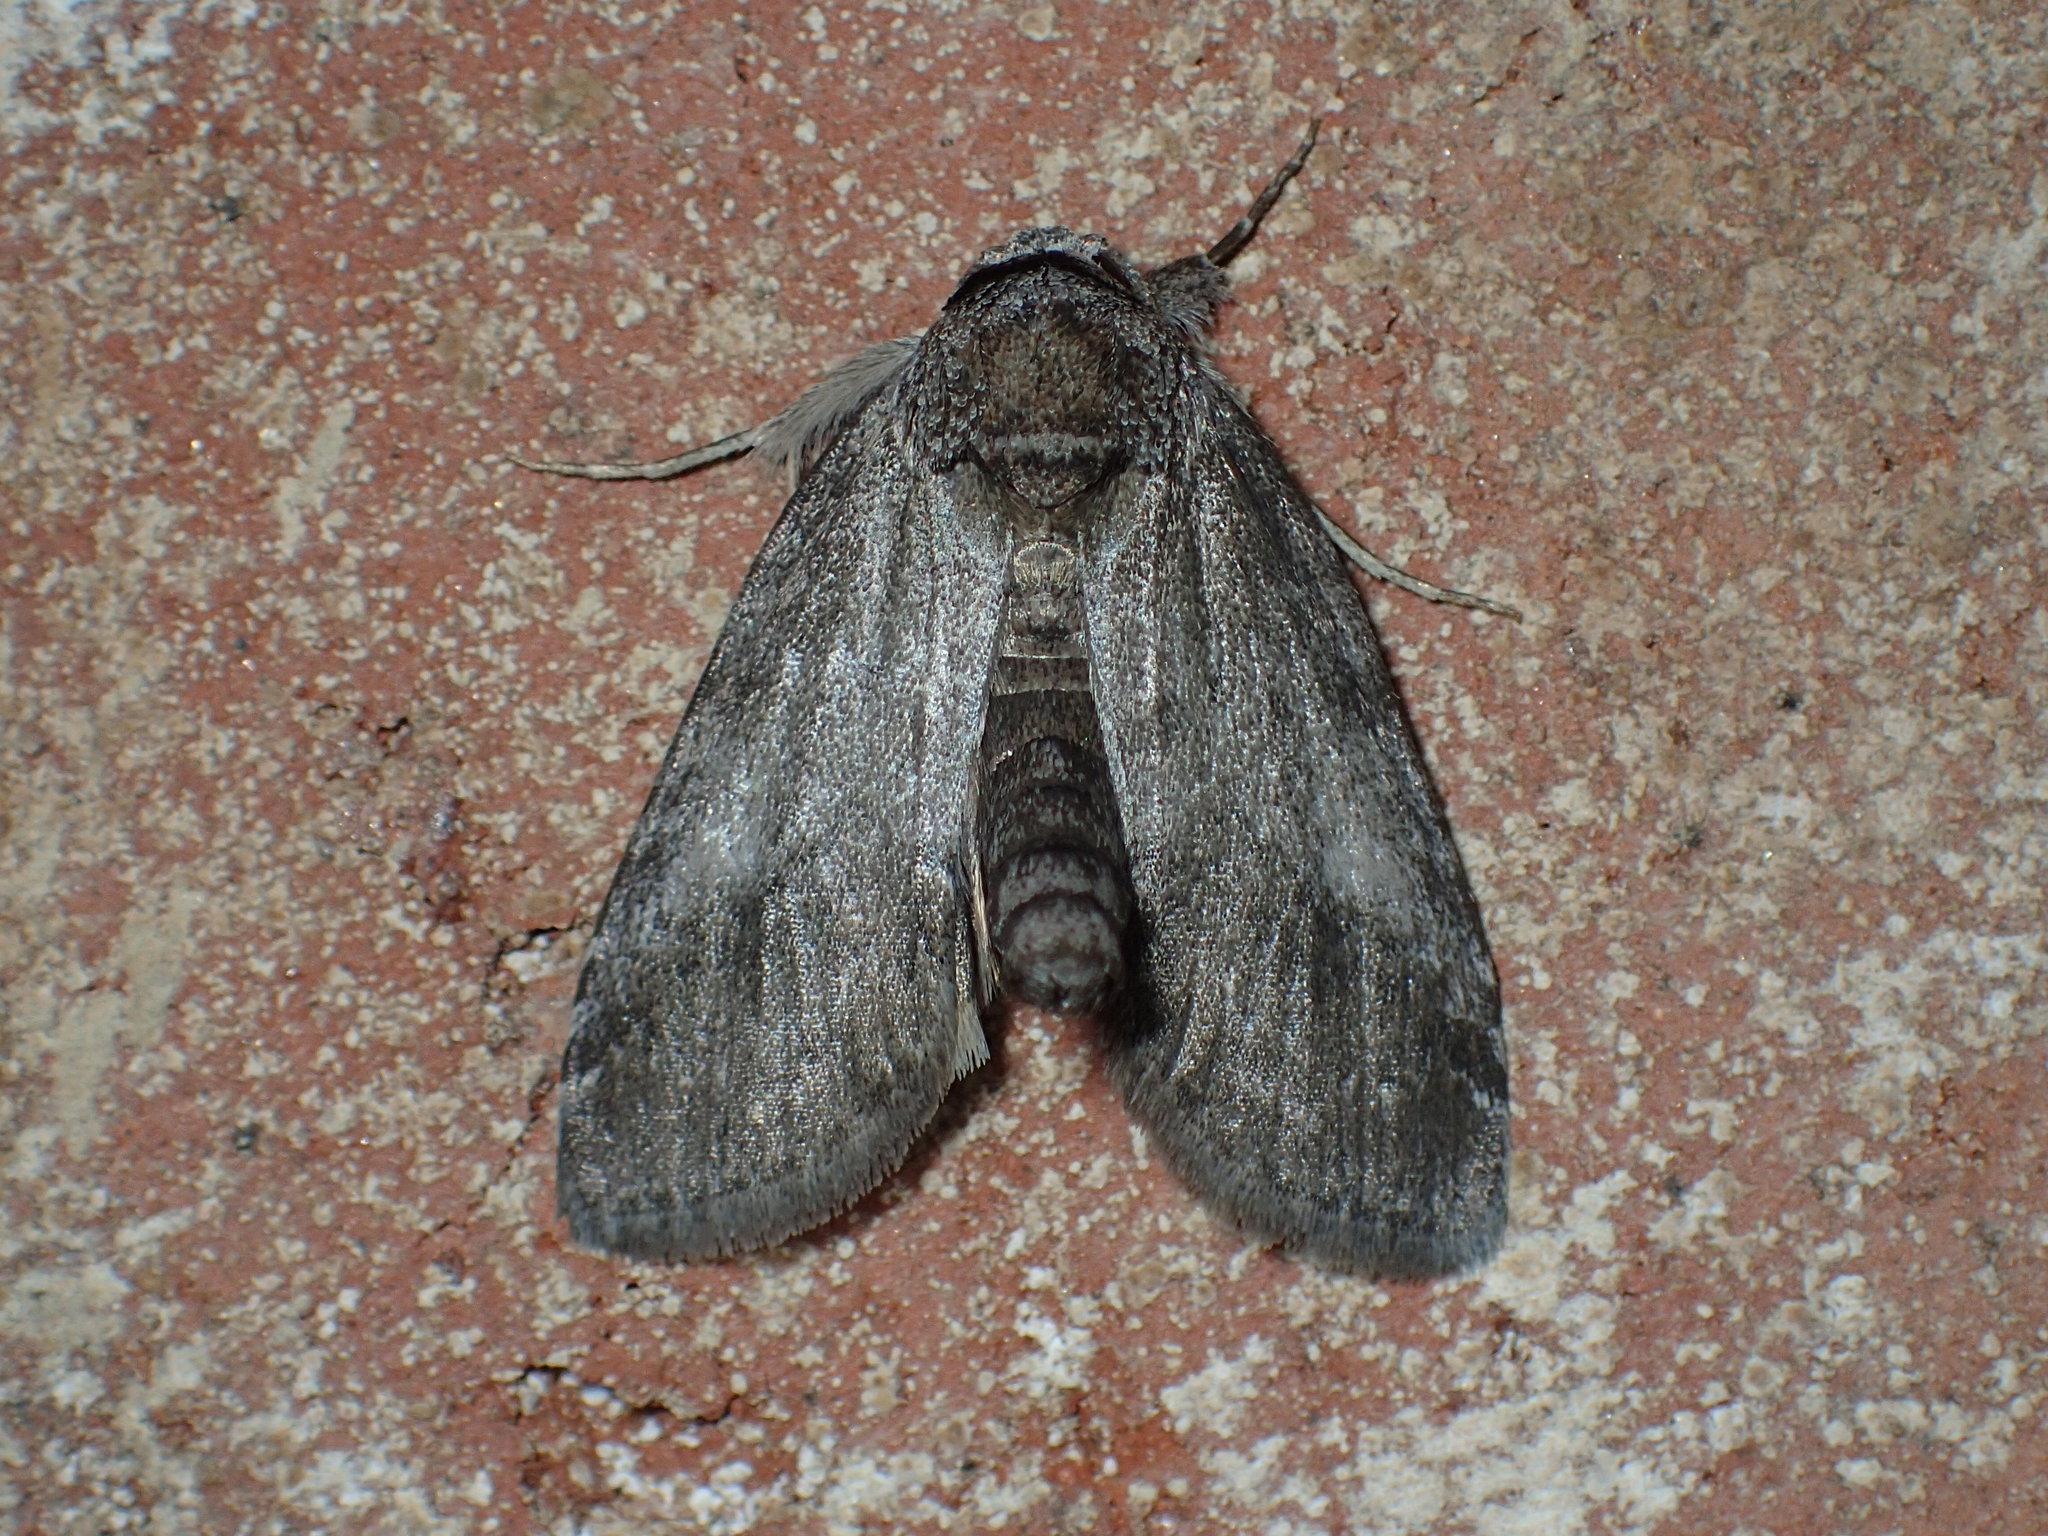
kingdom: Animalia
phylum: Arthropoda
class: Insecta
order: Lepidoptera
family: Nolidae
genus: Baileya
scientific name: Baileya ellessyoo
